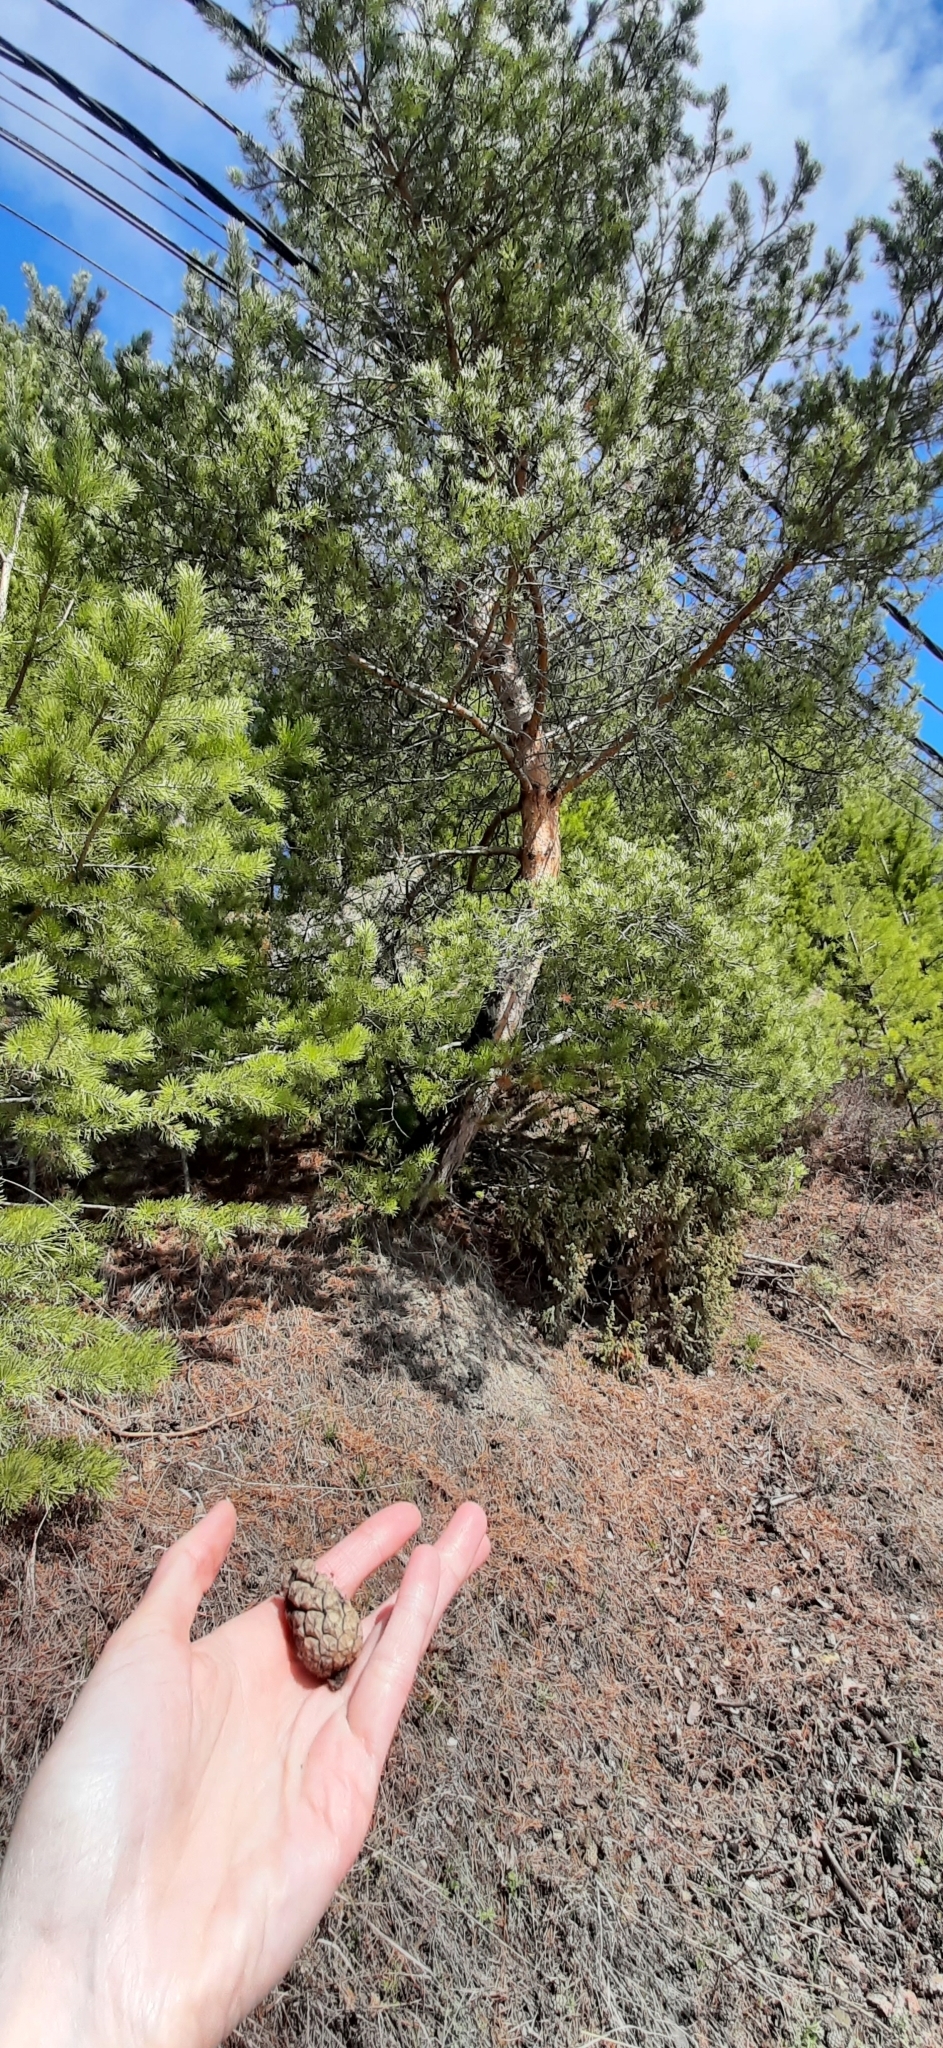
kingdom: Plantae
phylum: Tracheophyta
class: Pinopsida
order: Pinales
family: Pinaceae
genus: Pinus
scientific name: Pinus sylvestris
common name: Scots pine
